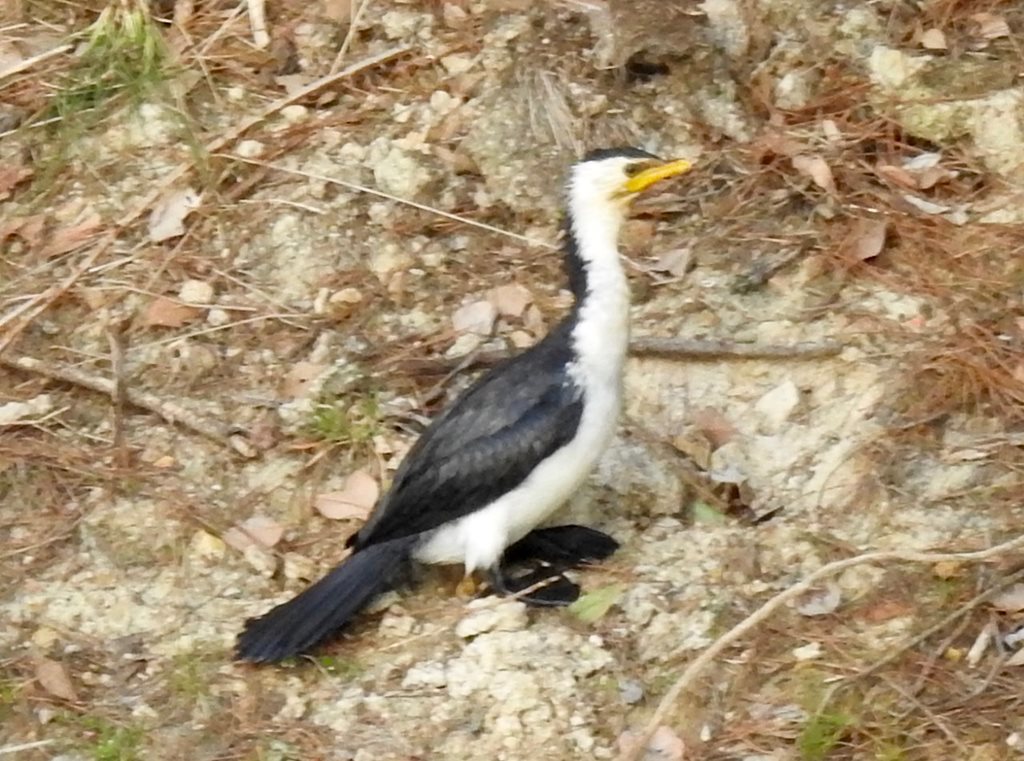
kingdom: Animalia
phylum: Chordata
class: Aves
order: Suliformes
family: Phalacrocoracidae
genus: Microcarbo
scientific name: Microcarbo melanoleucos
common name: Little pied cormorant
